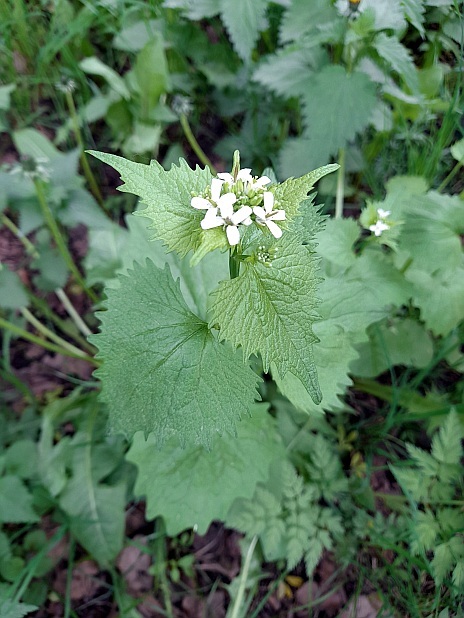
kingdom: Plantae
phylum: Tracheophyta
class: Magnoliopsida
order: Brassicales
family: Brassicaceae
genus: Alliaria
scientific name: Alliaria petiolata
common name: Garlic mustard
